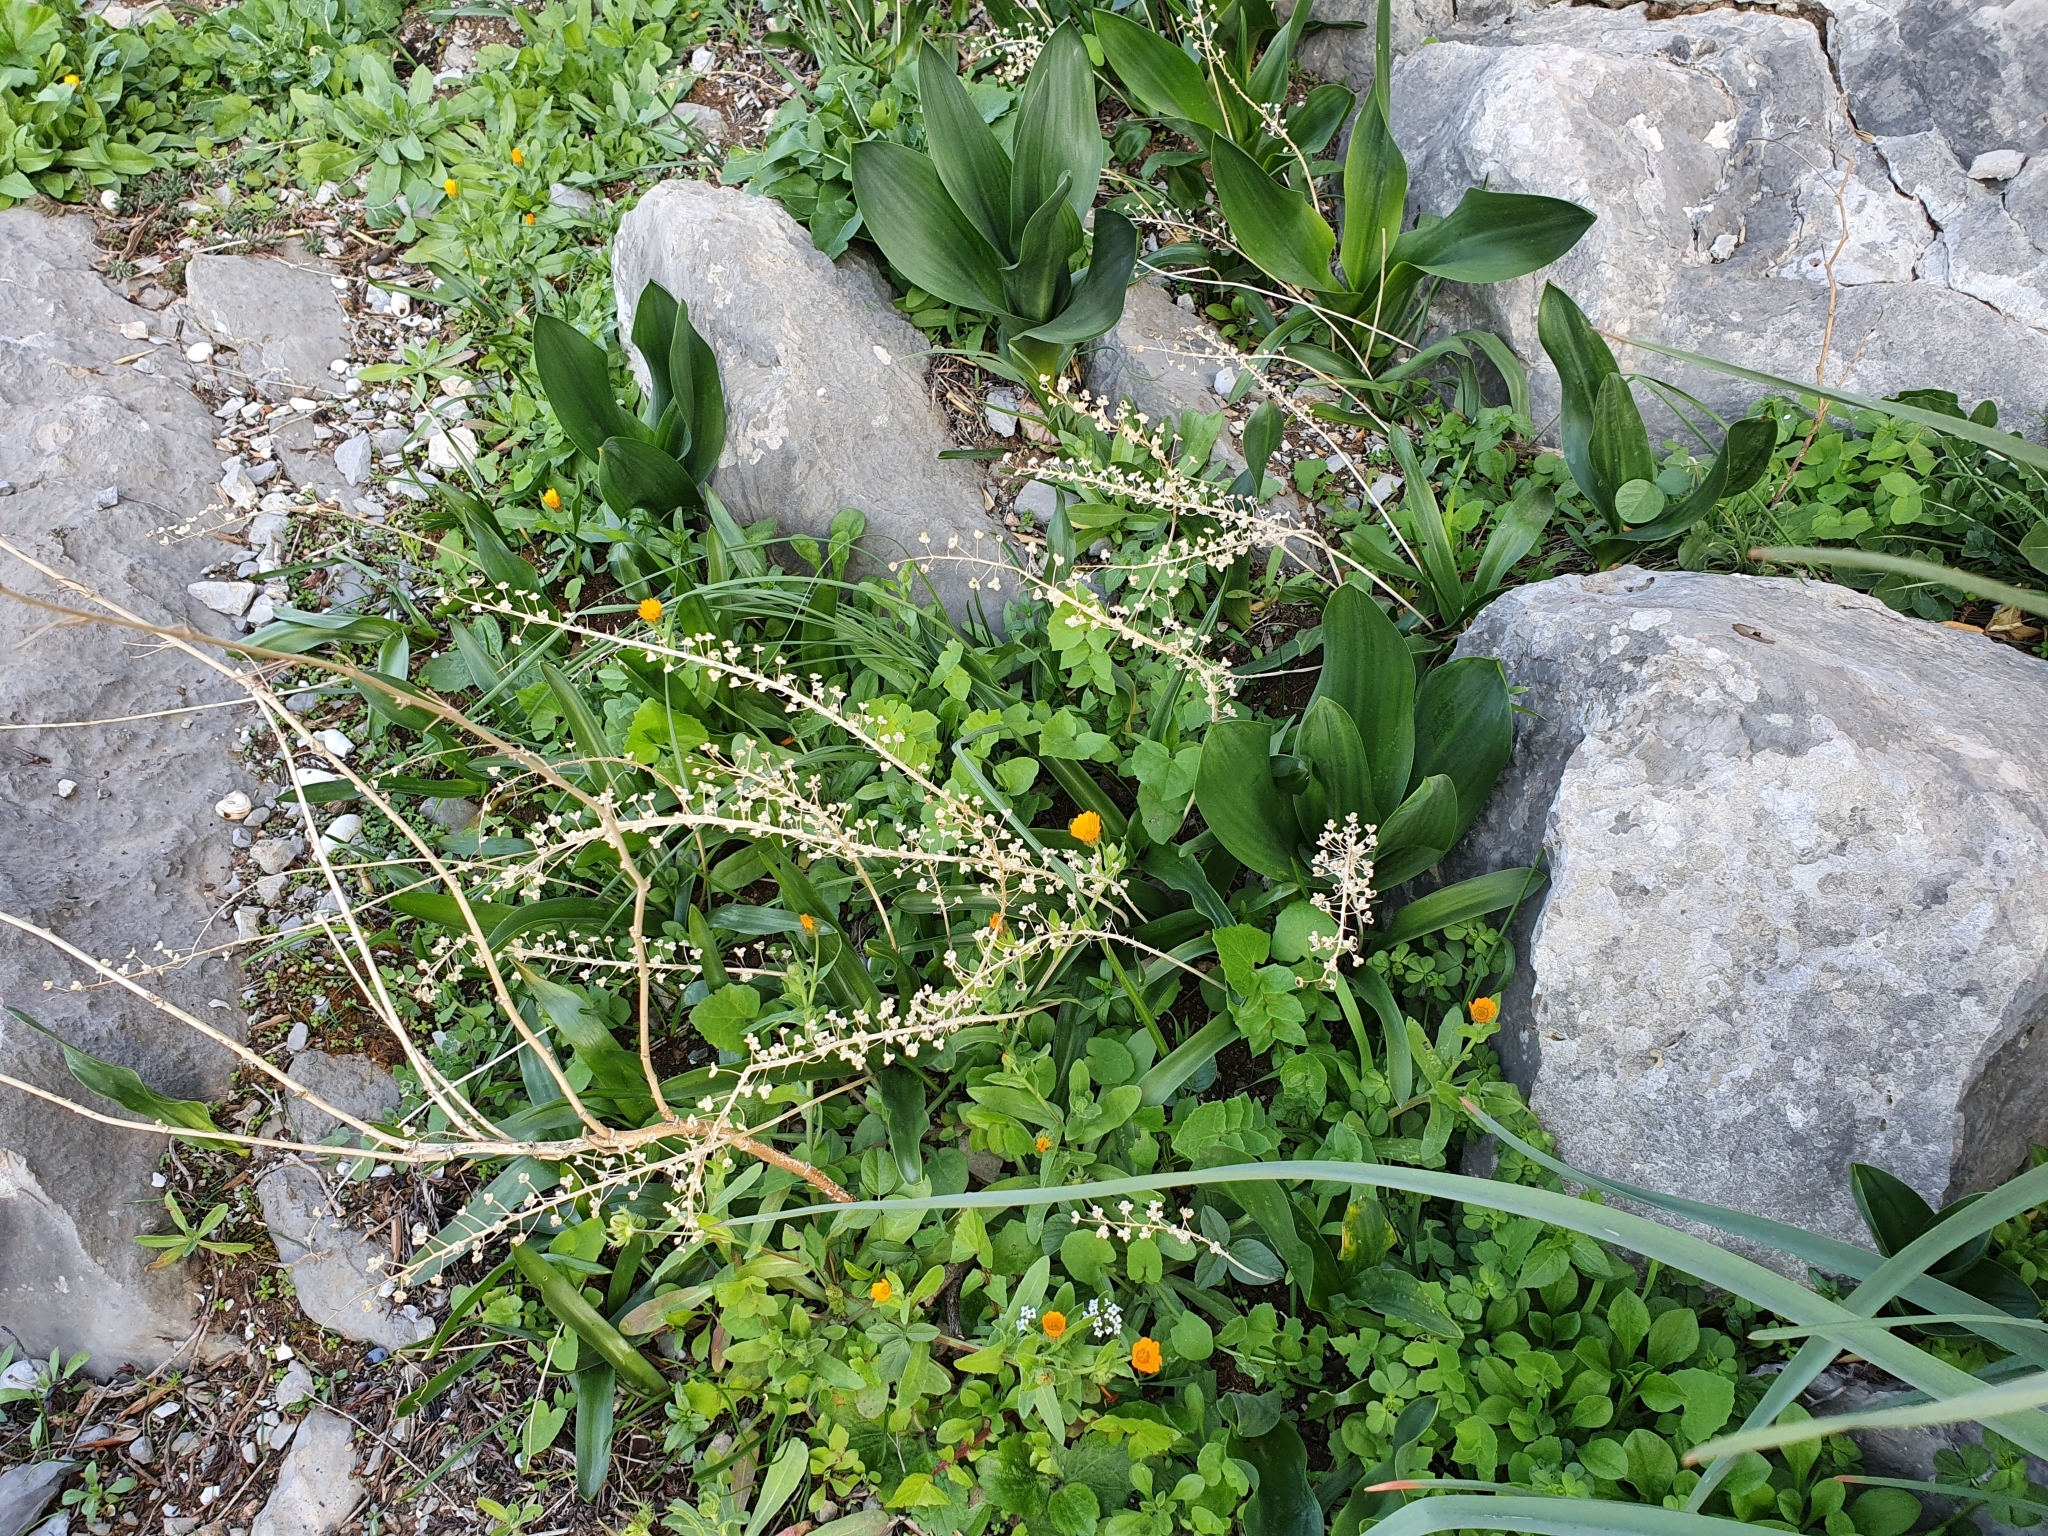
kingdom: Plantae
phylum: Tracheophyta
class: Liliopsida
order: Asparagales
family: Asparagaceae
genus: Prospero
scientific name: Prospero obtusifolium
